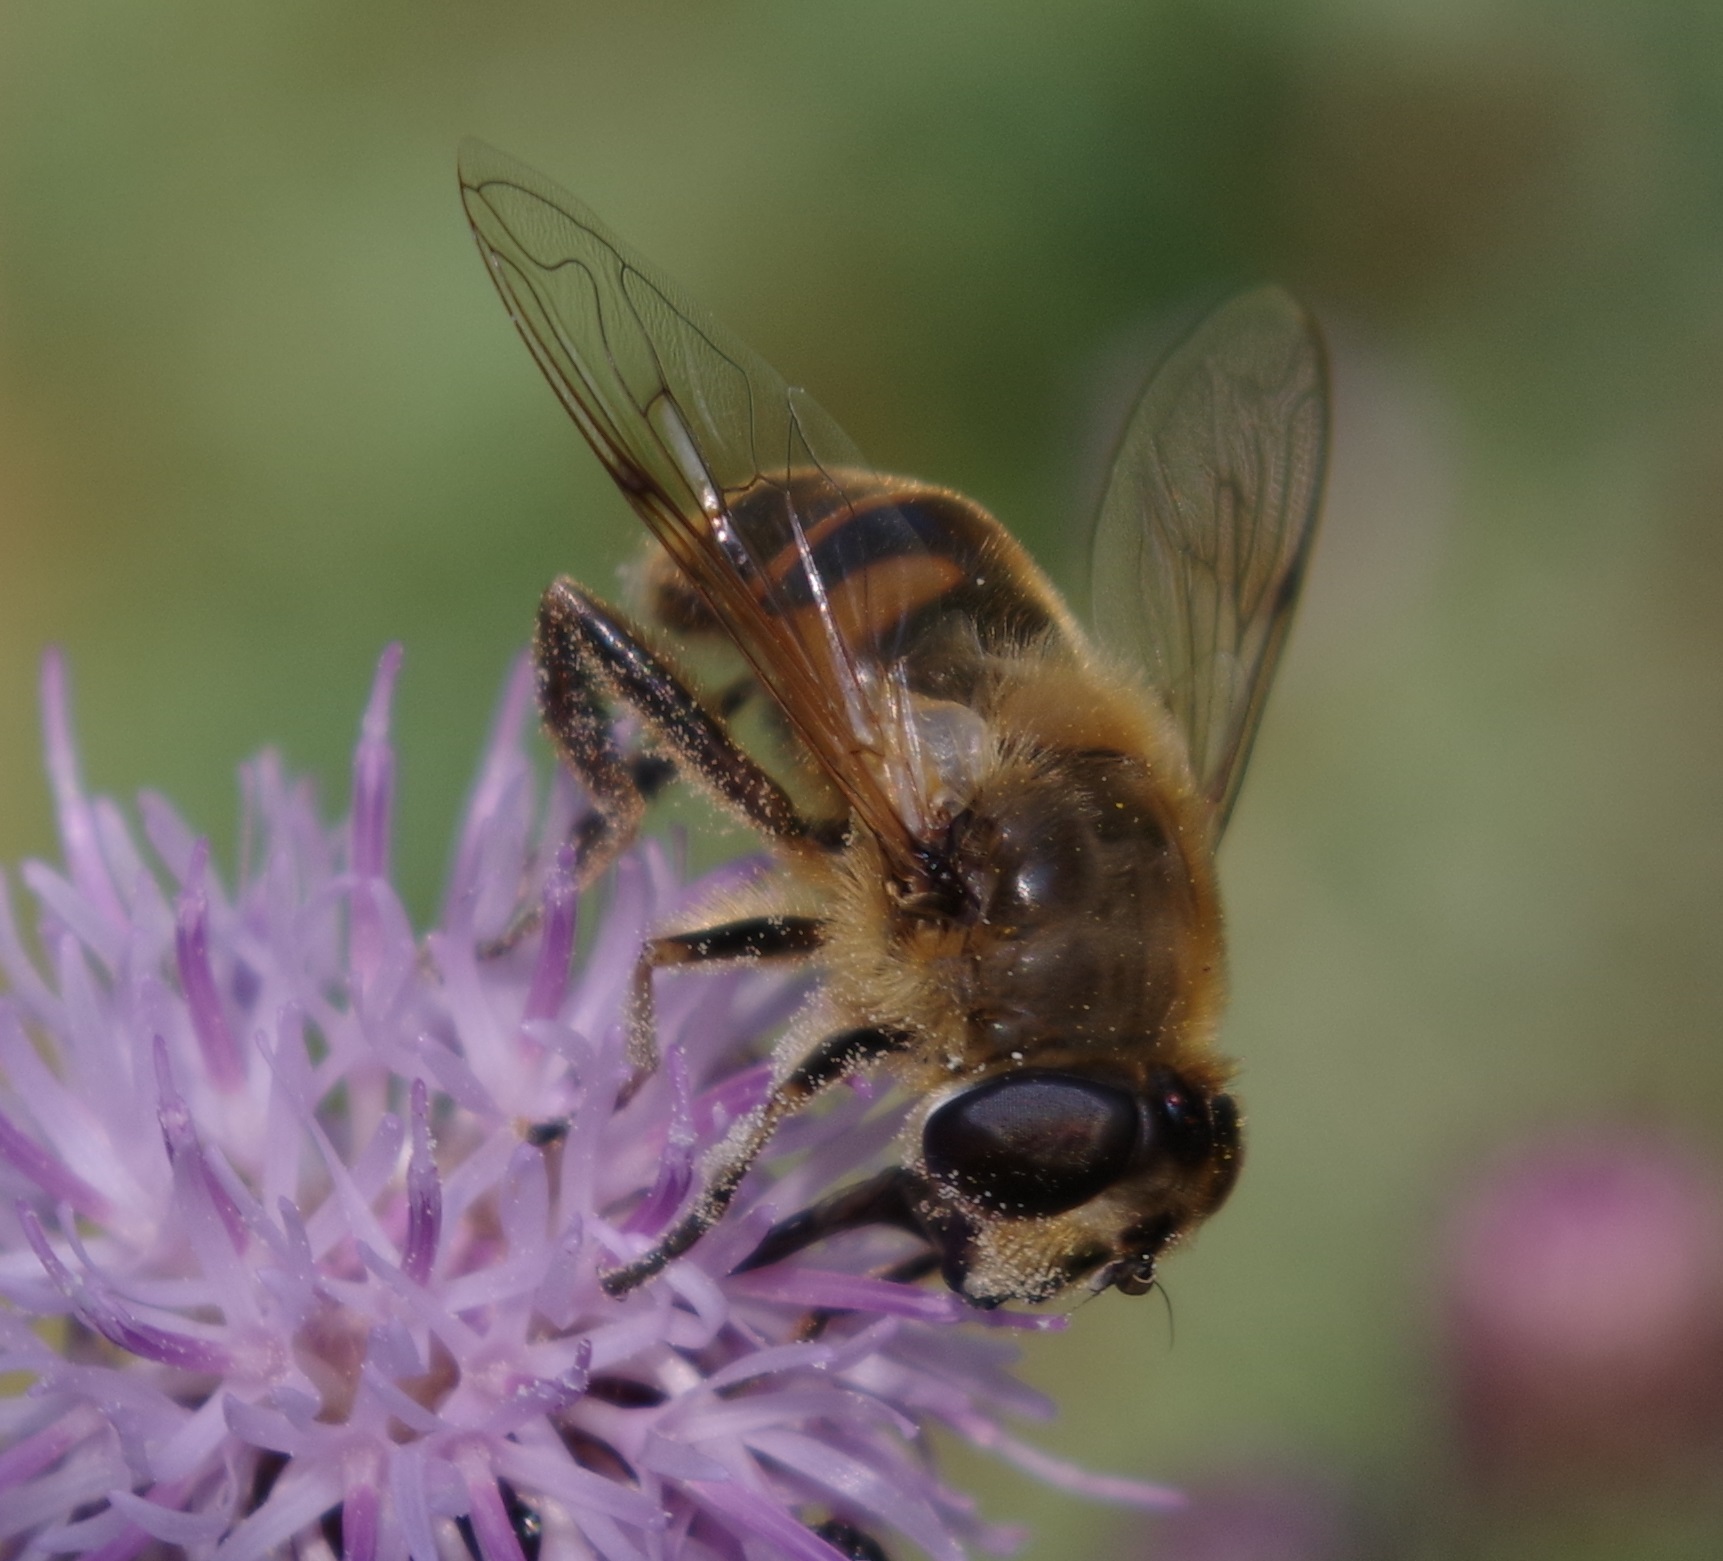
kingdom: Animalia
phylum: Arthropoda
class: Insecta
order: Diptera
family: Syrphidae
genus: Eristalis
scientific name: Eristalis tenax
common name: Drone fly
